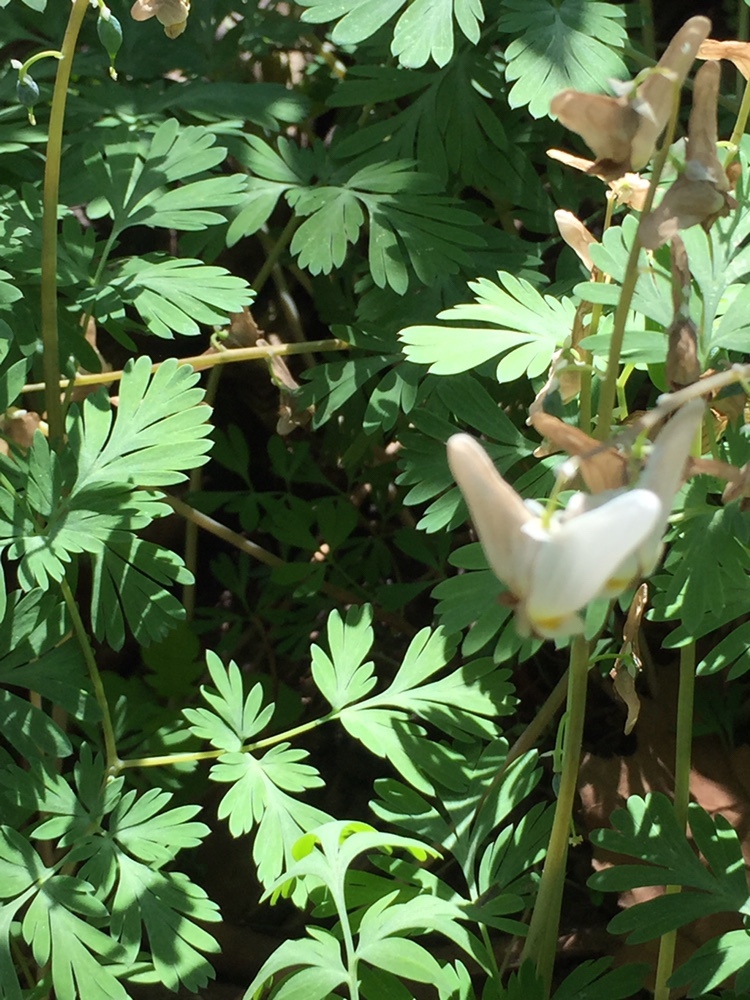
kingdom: Plantae
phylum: Tracheophyta
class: Magnoliopsida
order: Ranunculales
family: Papaveraceae
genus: Dicentra
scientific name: Dicentra cucullaria
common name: Dutchman's breeches
